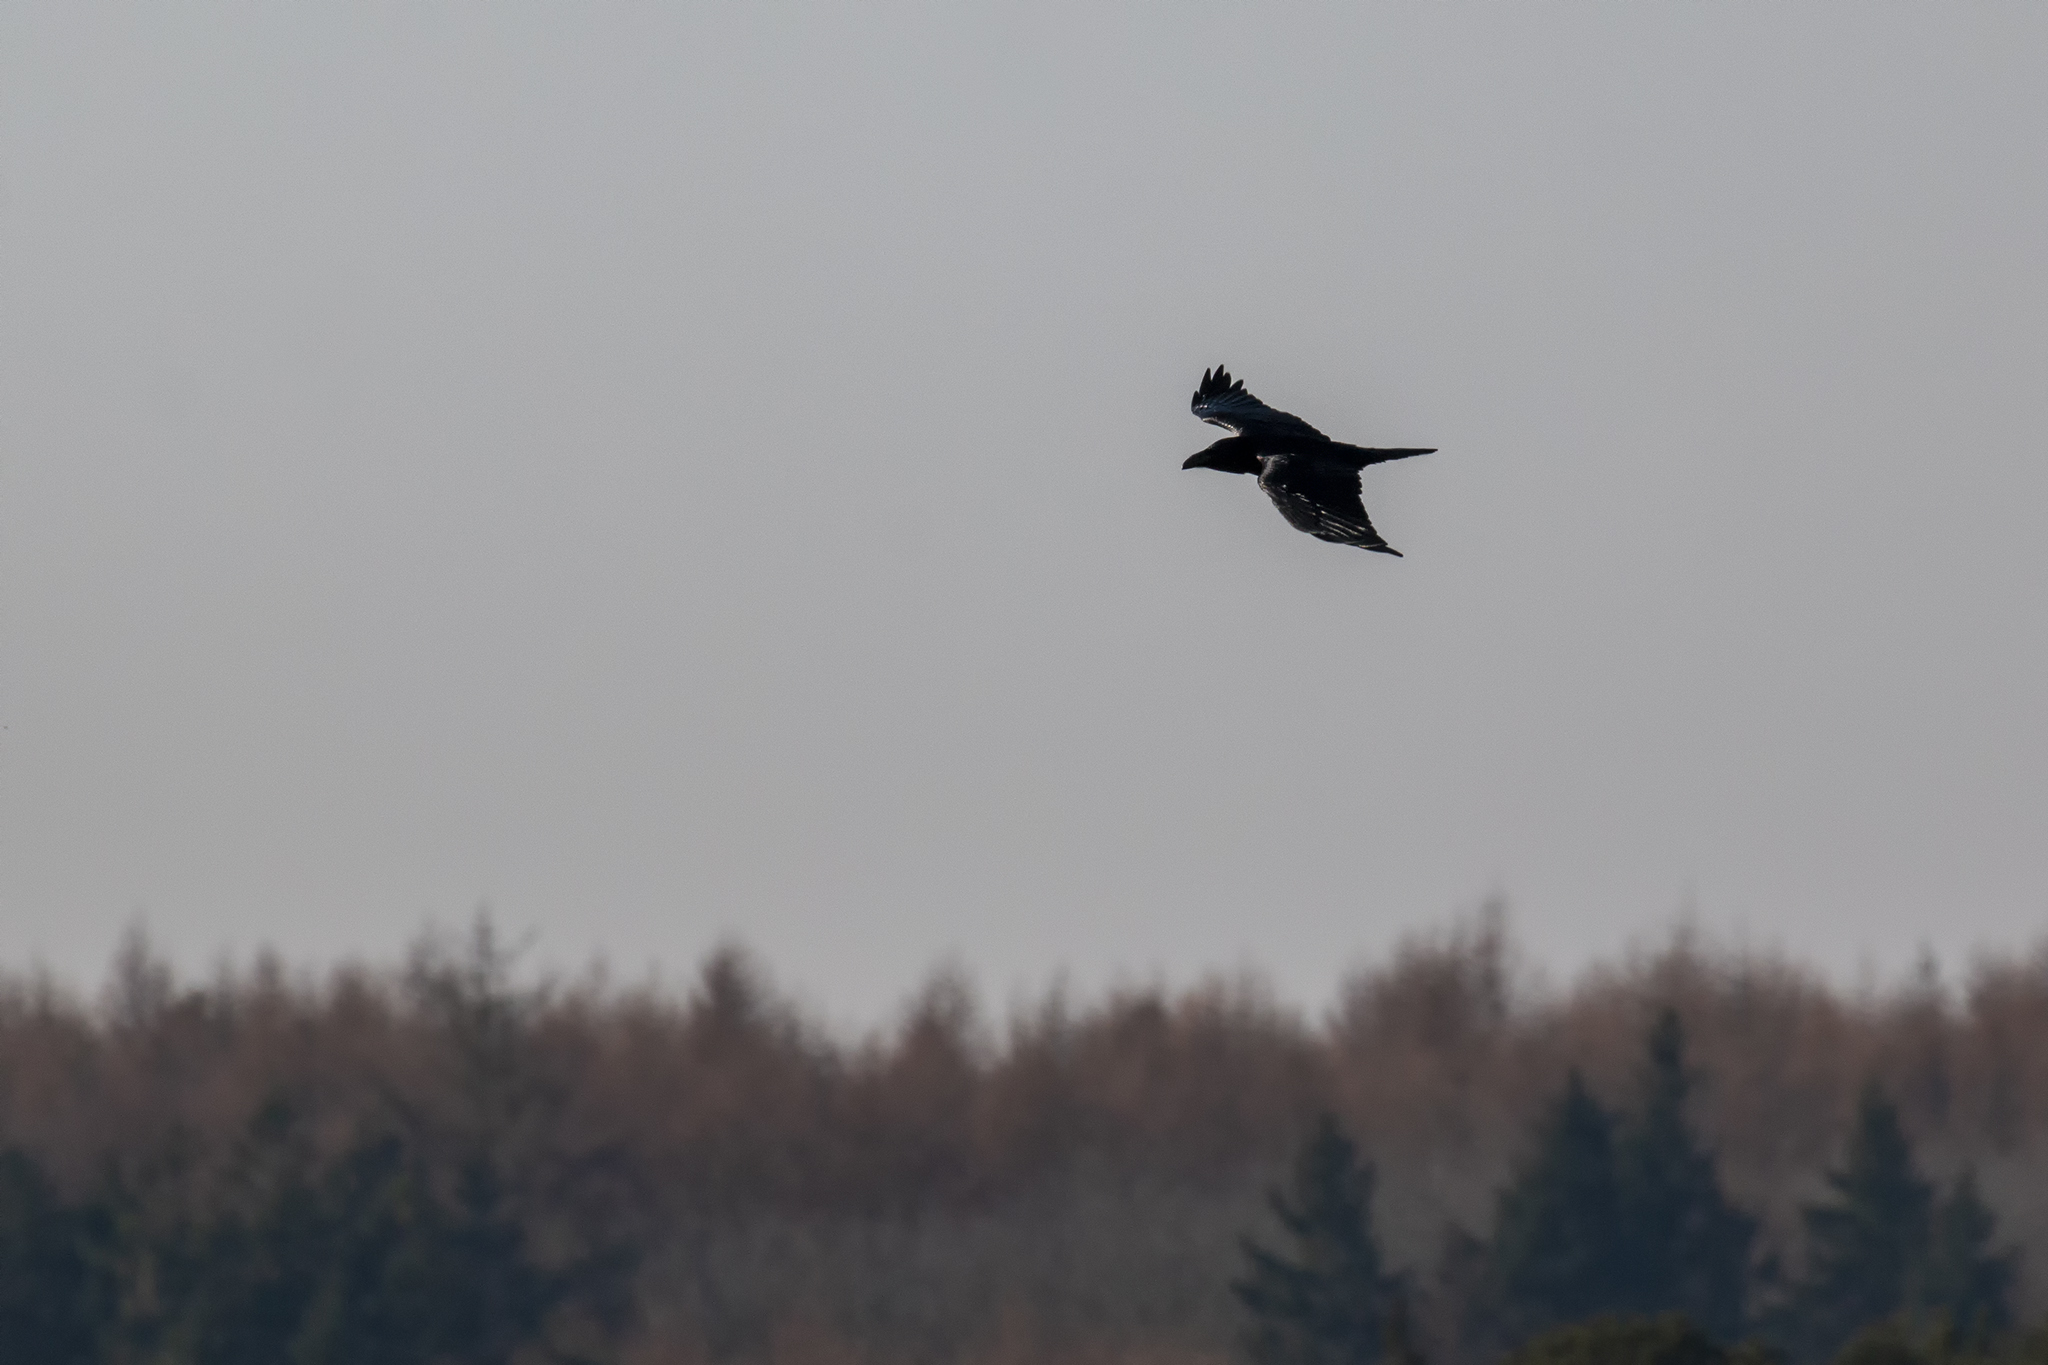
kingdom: Animalia
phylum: Chordata
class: Aves
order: Passeriformes
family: Corvidae
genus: Corvus
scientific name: Corvus corax
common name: Common raven
